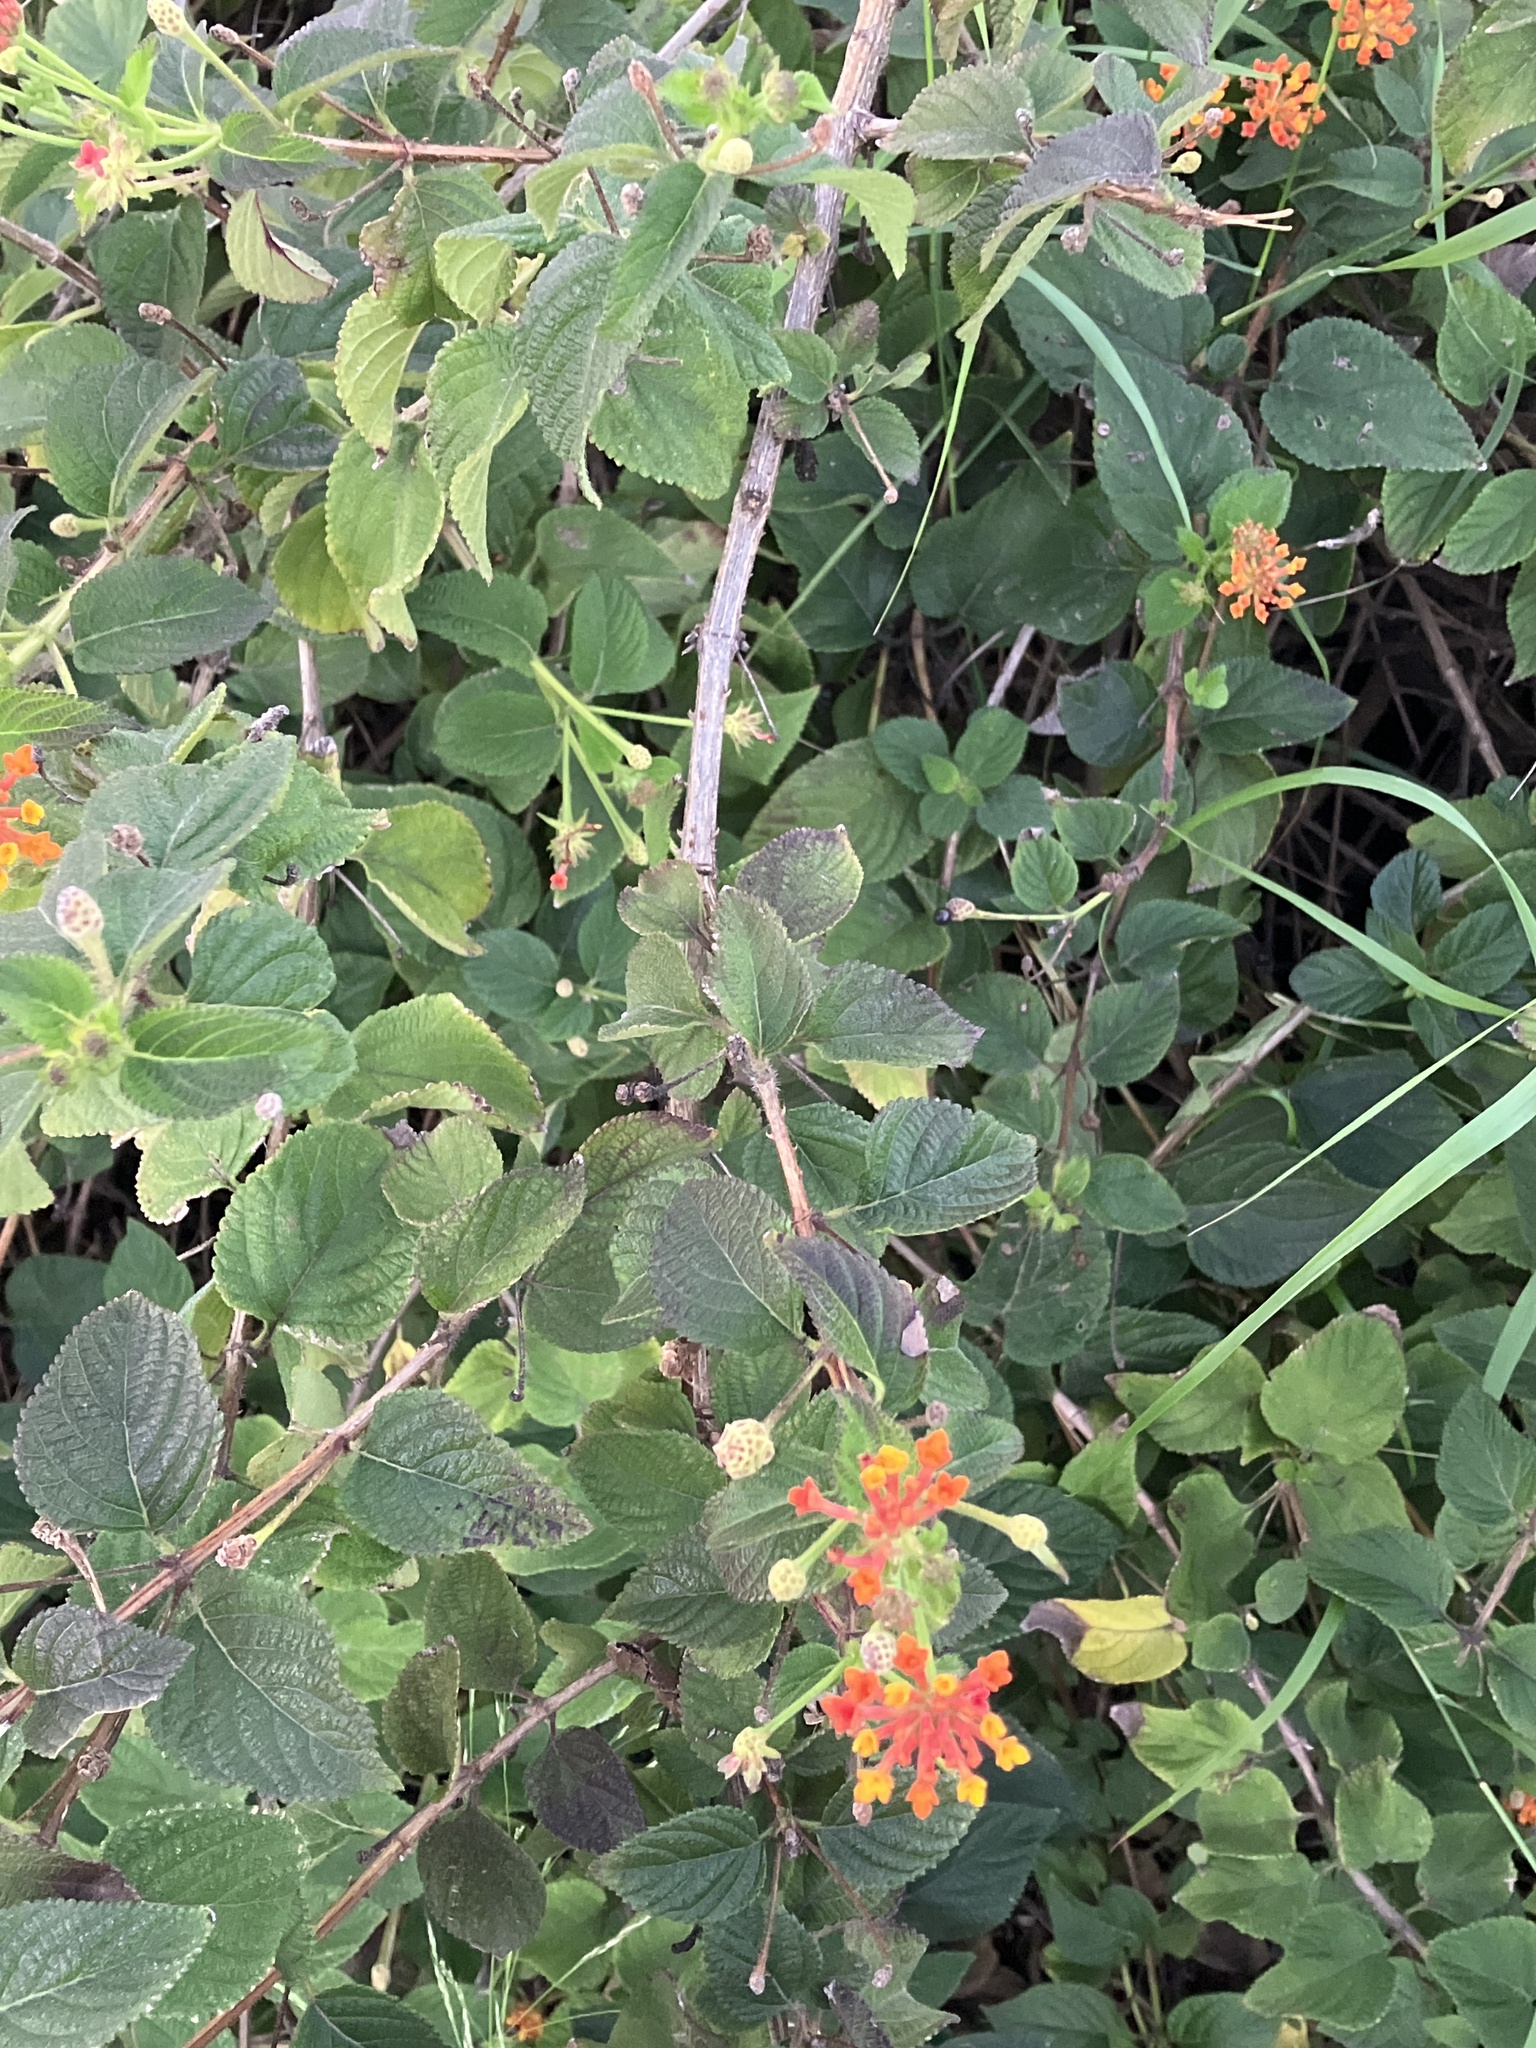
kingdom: Plantae
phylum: Tracheophyta
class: Magnoliopsida
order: Lamiales
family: Verbenaceae
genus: Lantana
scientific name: Lantana camara
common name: Lantana
